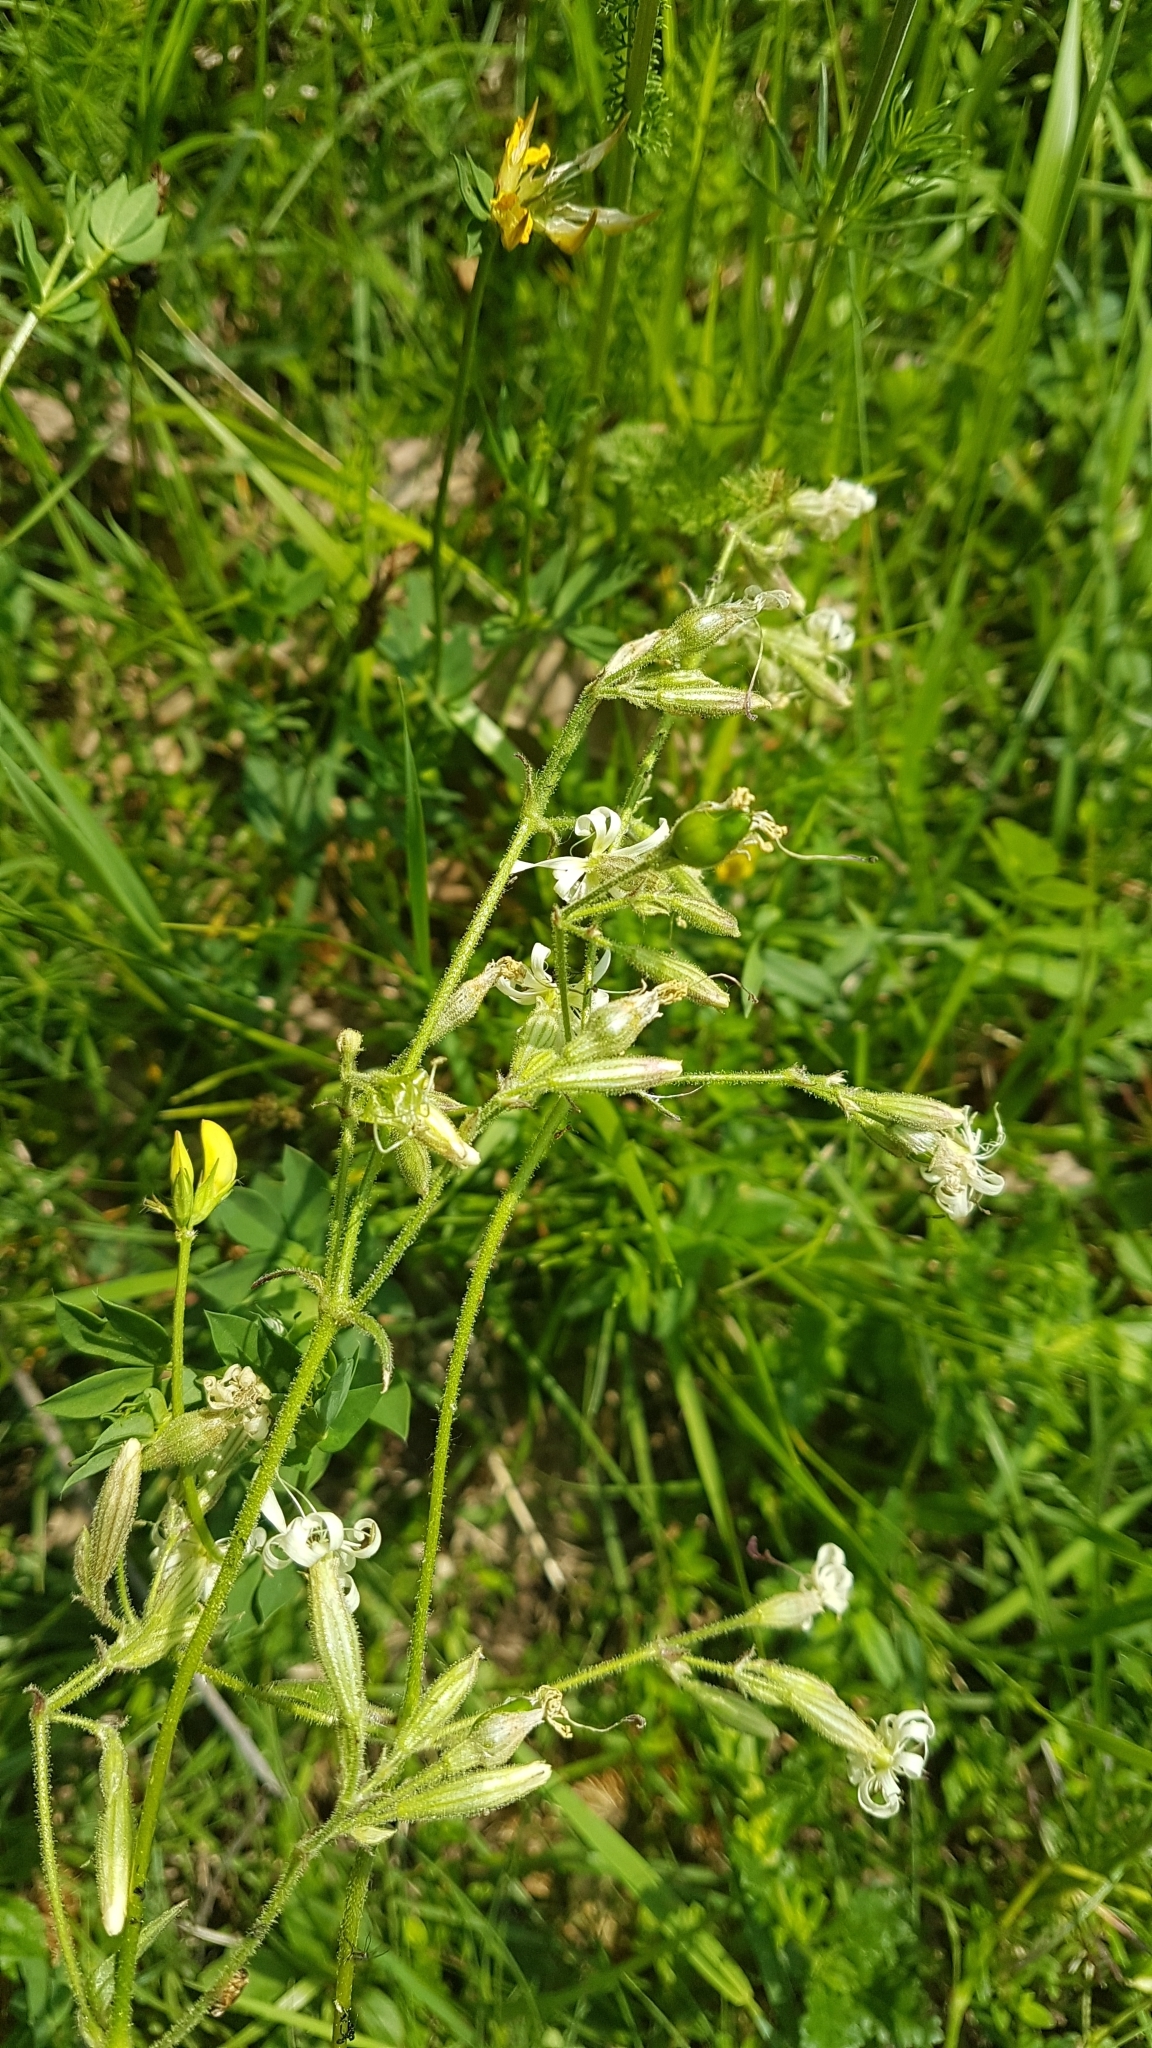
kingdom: Plantae
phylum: Tracheophyta
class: Magnoliopsida
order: Caryophyllales
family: Caryophyllaceae
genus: Silene
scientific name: Silene nutans
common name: Nottingham catchfly
